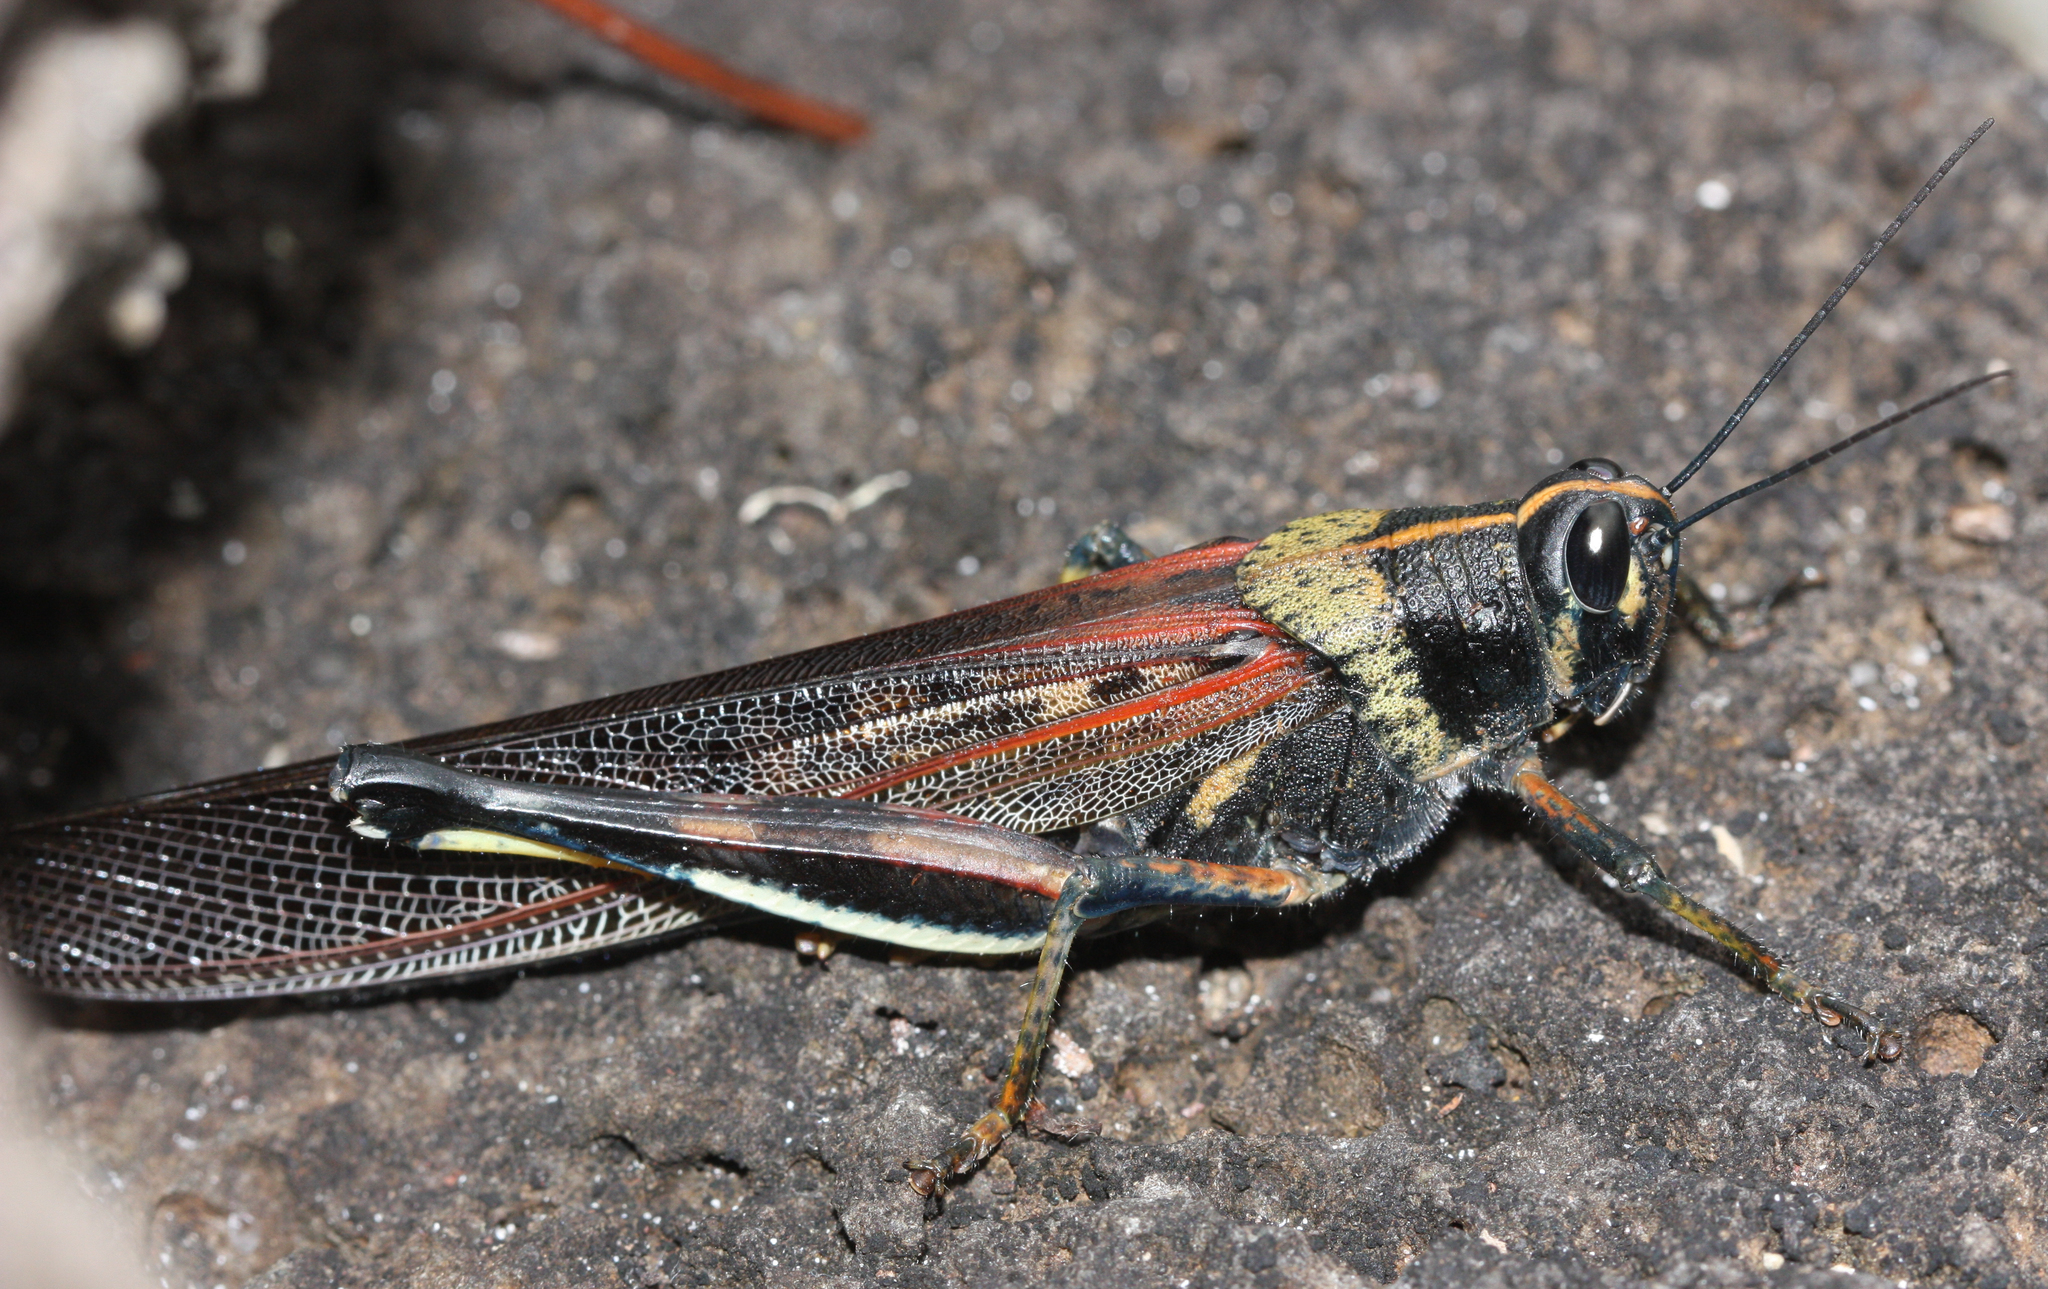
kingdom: Animalia
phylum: Arthropoda
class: Insecta
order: Orthoptera
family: Acrididae
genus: Schistocerca
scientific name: Schistocerca melanocera
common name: Large painted locust
